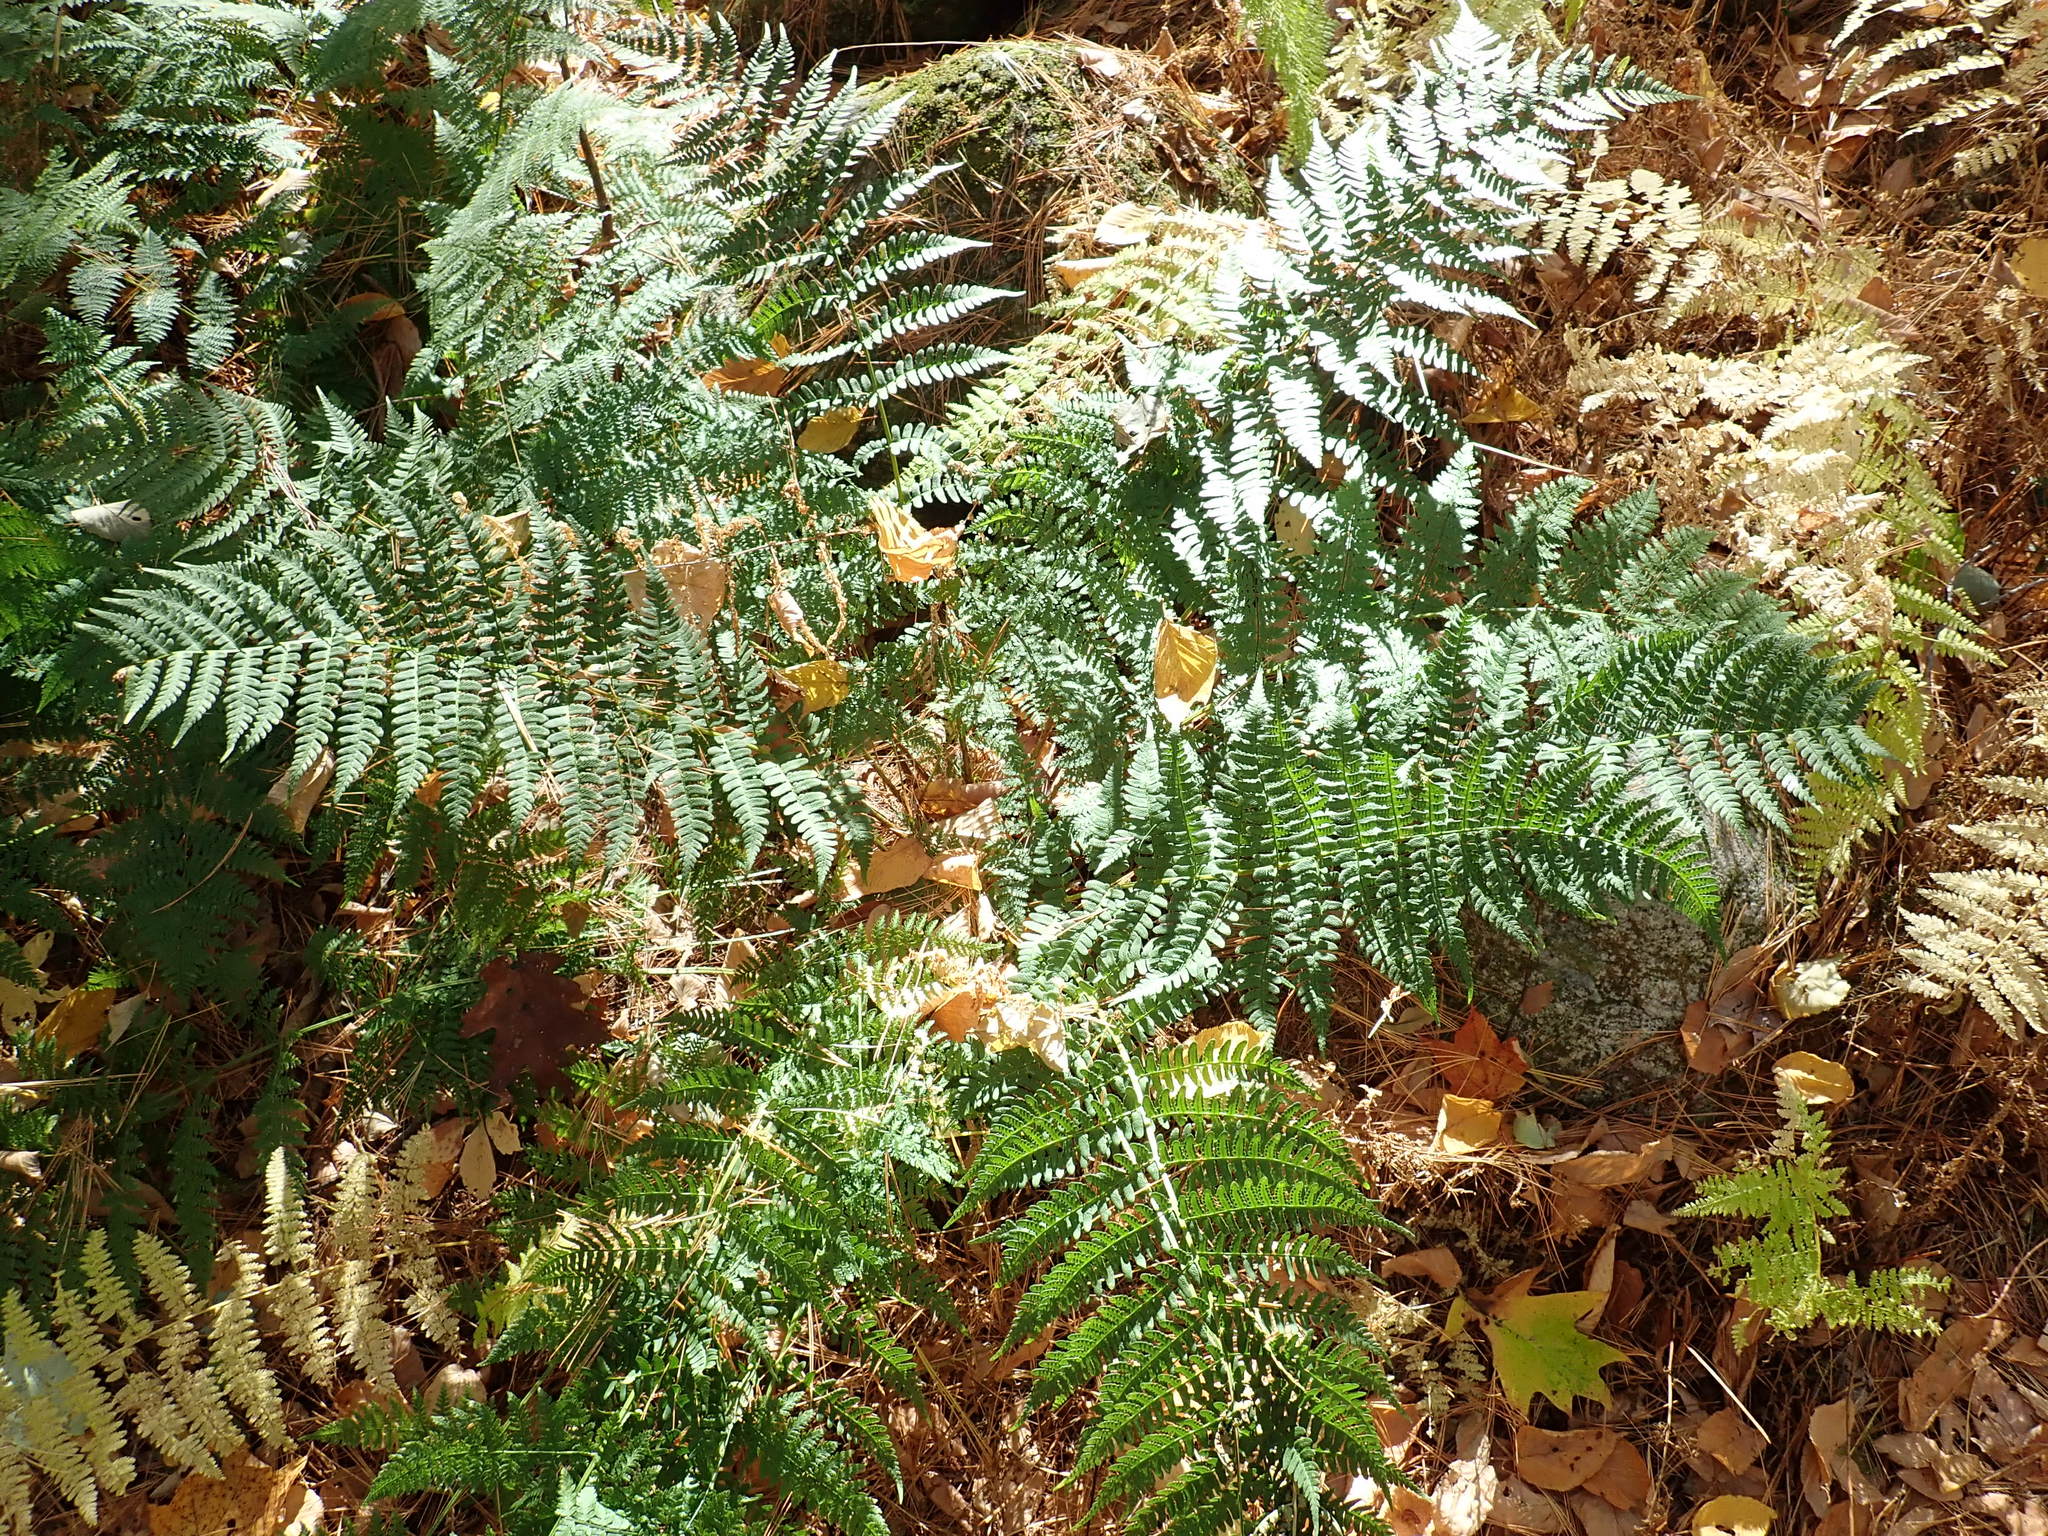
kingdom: Plantae
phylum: Tracheophyta
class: Polypodiopsida
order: Polypodiales
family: Dryopteridaceae
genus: Dryopteris
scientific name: Dryopteris marginalis
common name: Marginal wood fern
